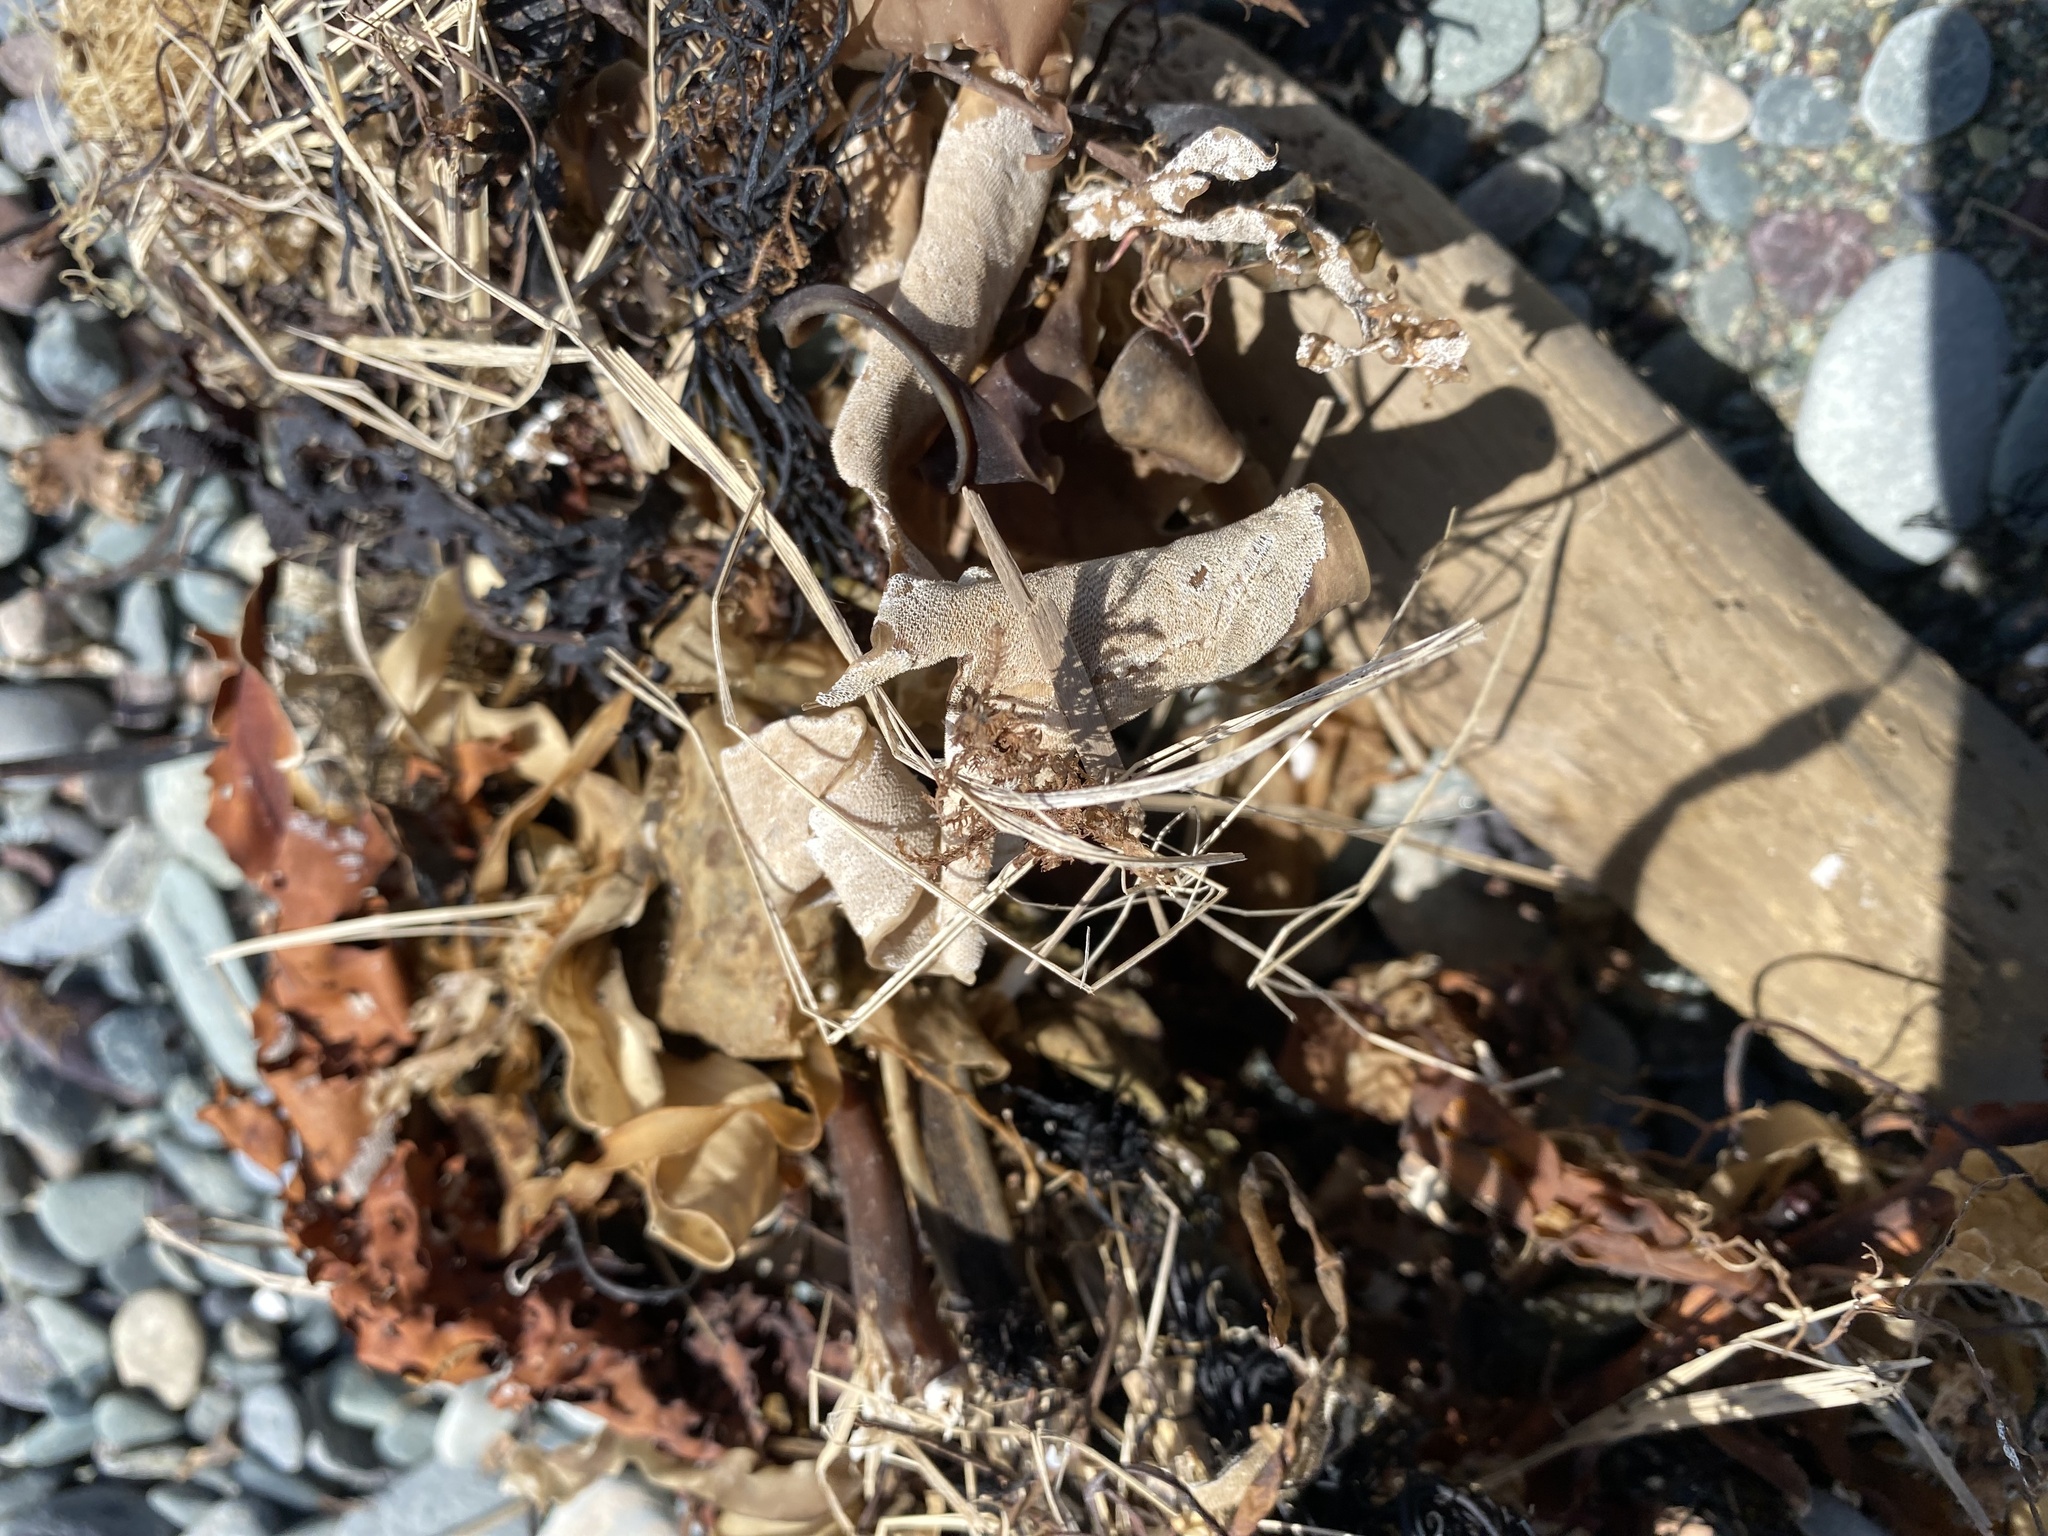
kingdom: Animalia
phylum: Bryozoa
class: Gymnolaemata
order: Cheilostomatida
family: Membraniporidae
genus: Membranipora
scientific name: Membranipora membranacea
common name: Sea mat
